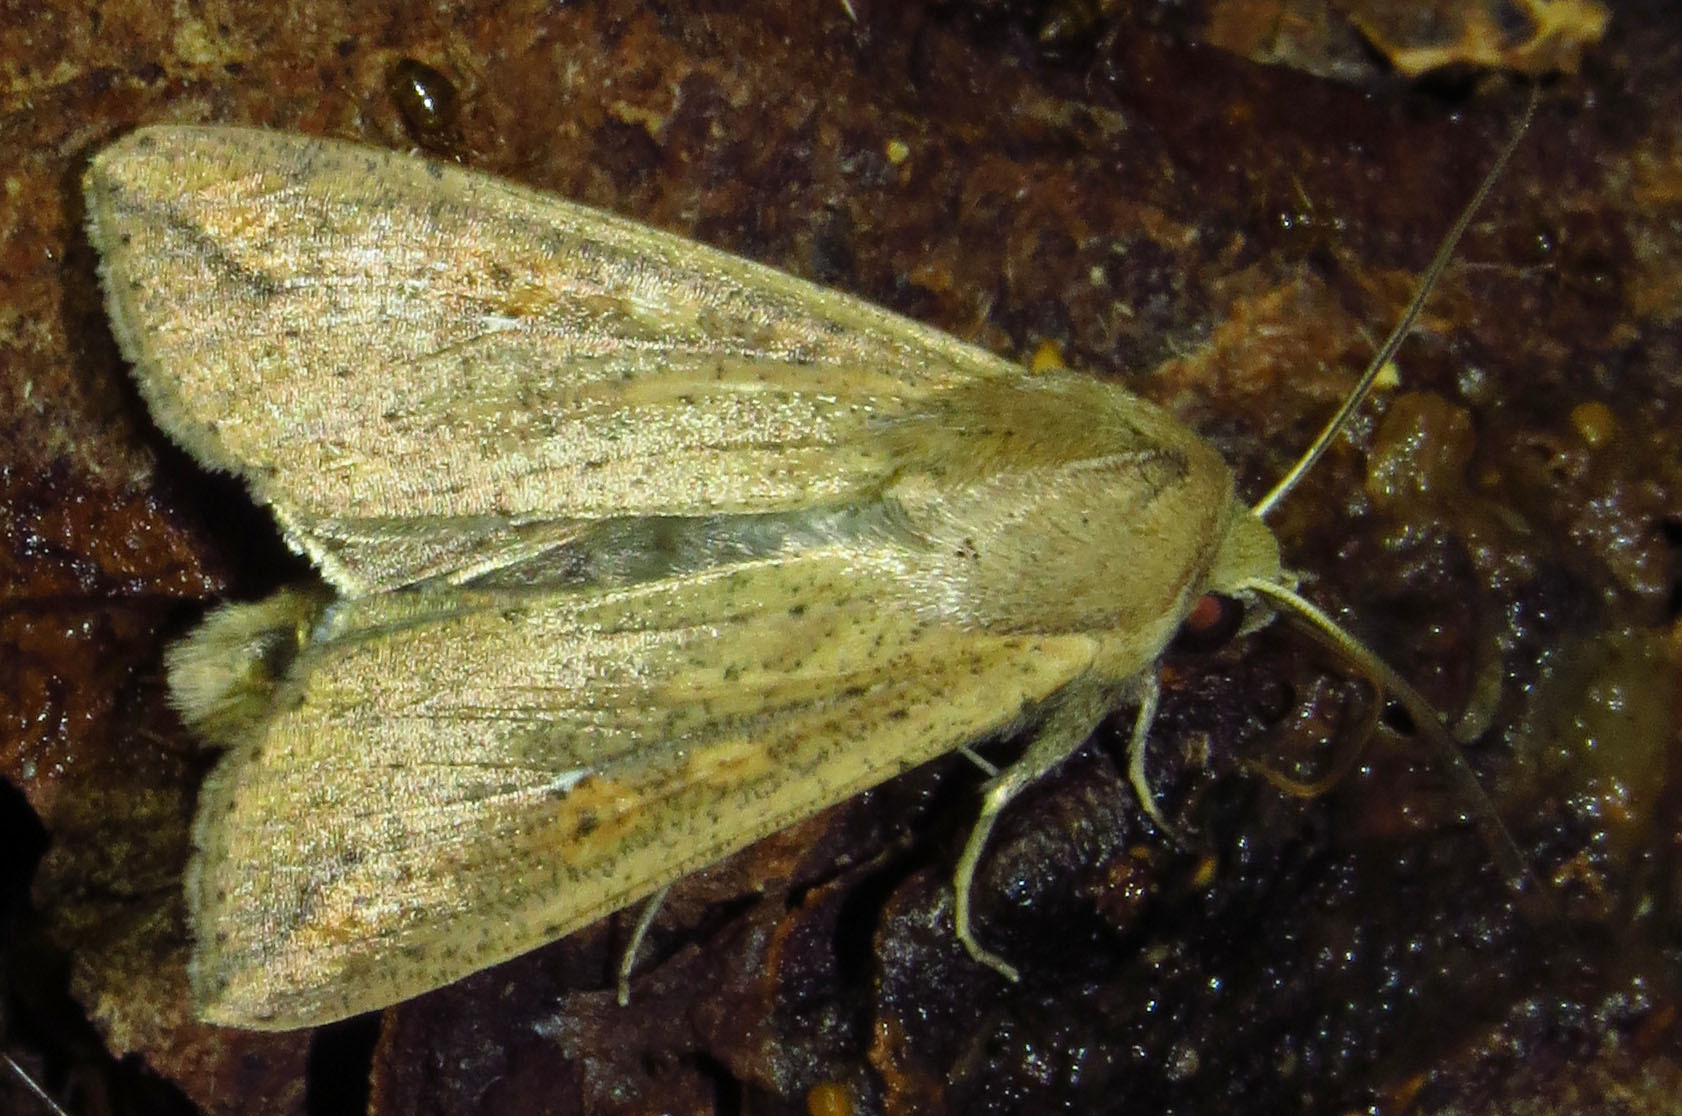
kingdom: Animalia
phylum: Arthropoda
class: Insecta
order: Lepidoptera
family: Noctuidae
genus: Mythimna
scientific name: Mythimna unipuncta
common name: White-speck
